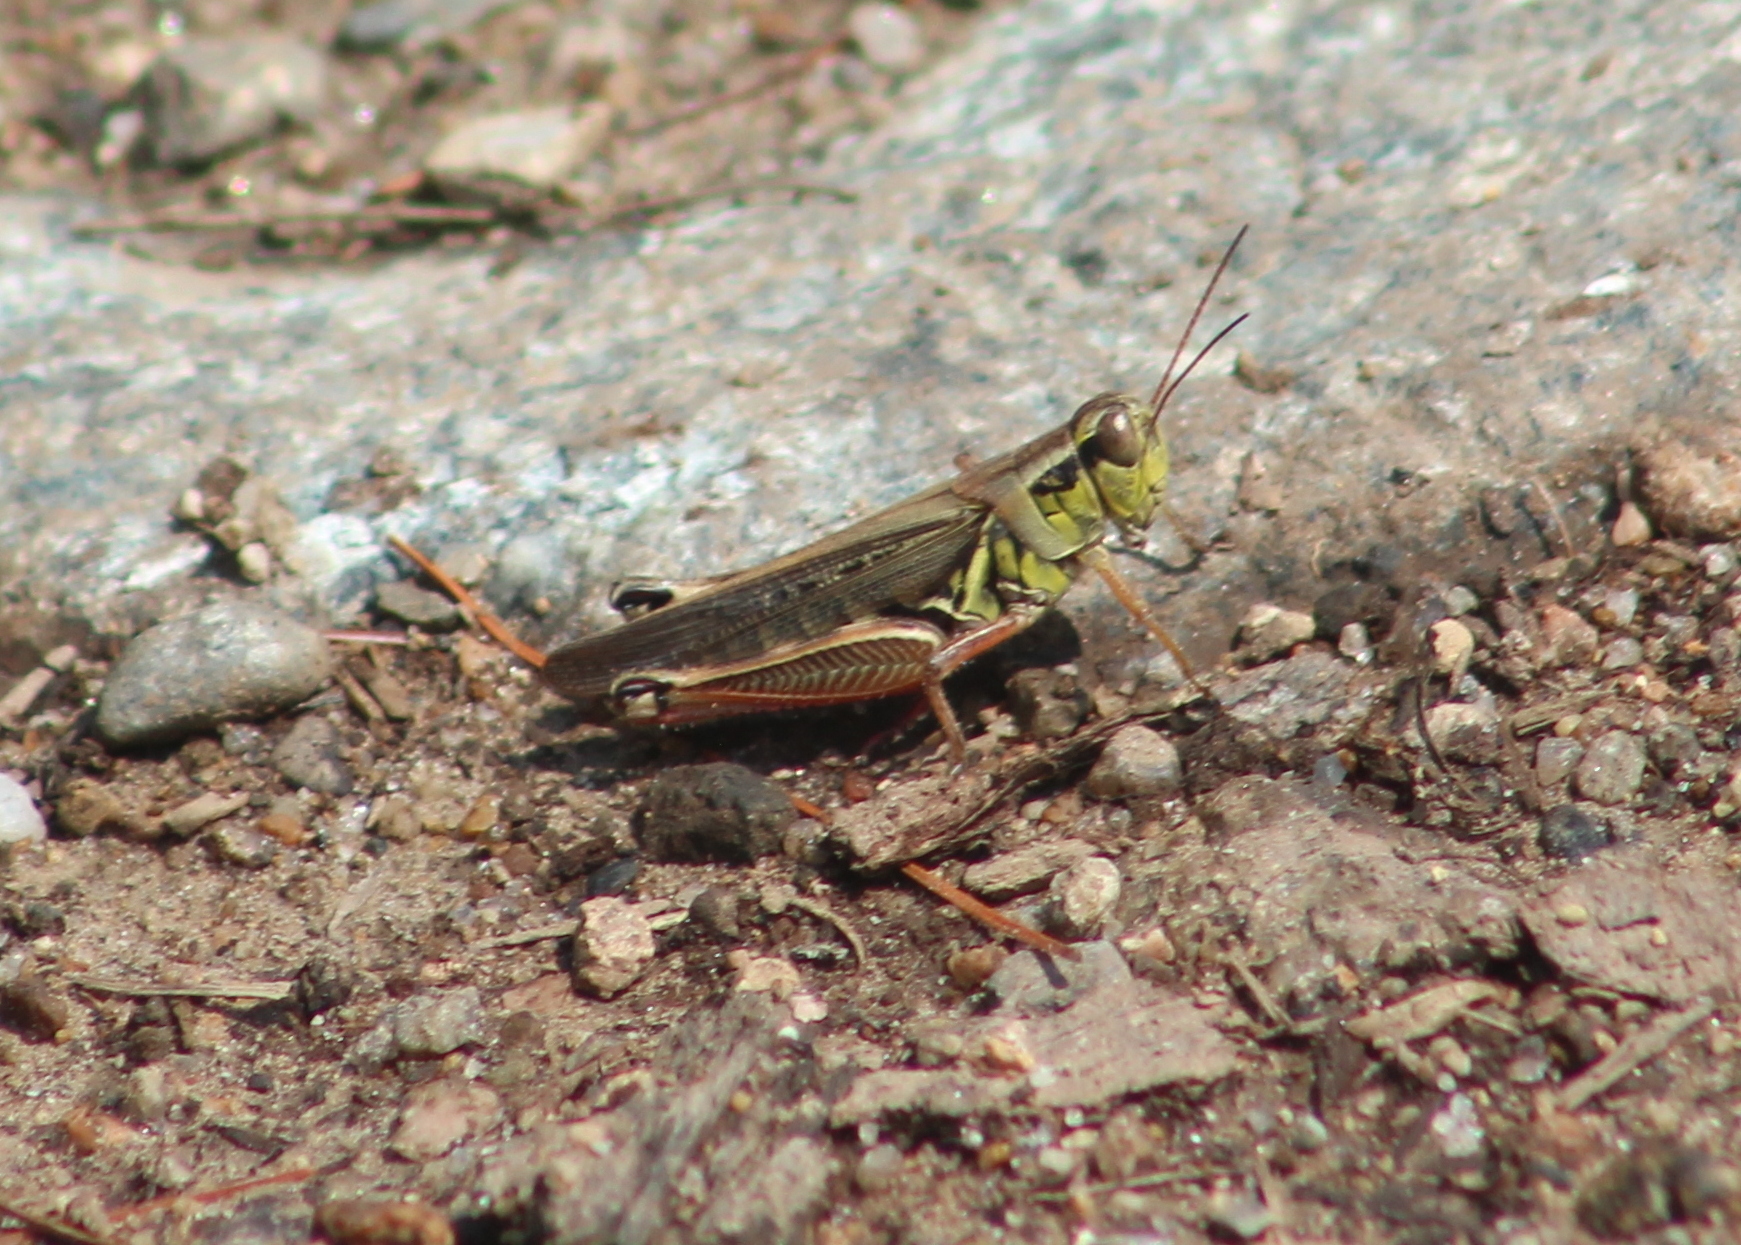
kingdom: Animalia
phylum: Arthropoda
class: Insecta
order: Orthoptera
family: Acrididae
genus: Melanoplus
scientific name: Melanoplus femurrubrum
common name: Red-legged grasshopper
